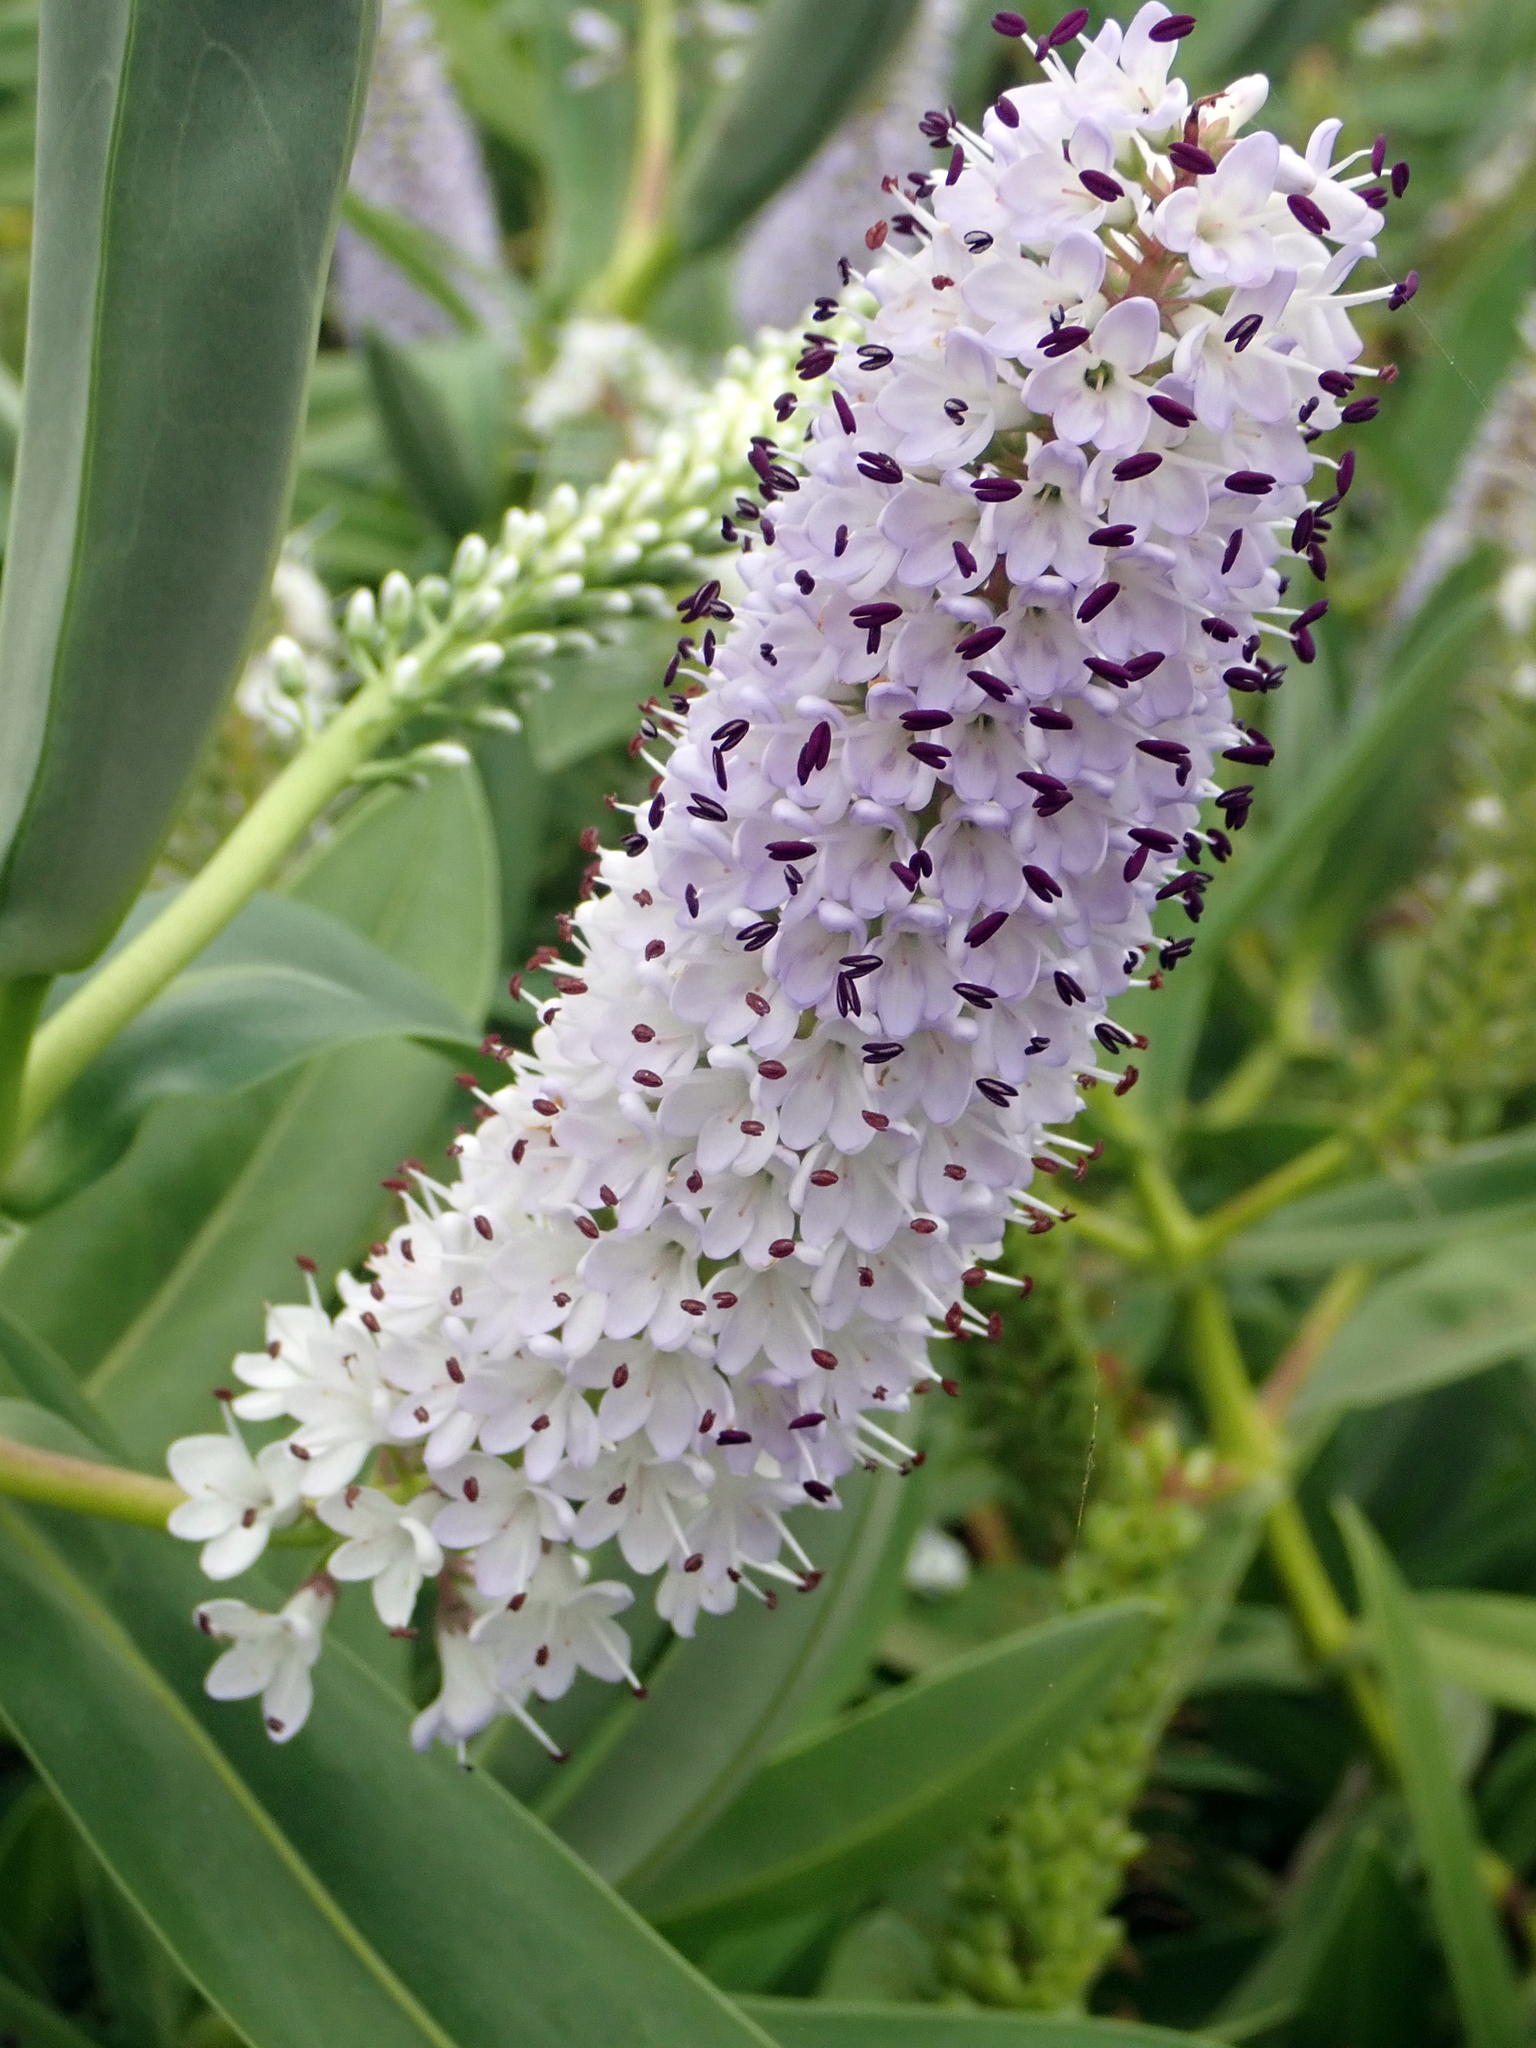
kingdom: Plantae
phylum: Tracheophyta
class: Magnoliopsida
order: Lamiales
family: Plantaginaceae
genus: Veronica
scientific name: Veronica dieffenbachii
